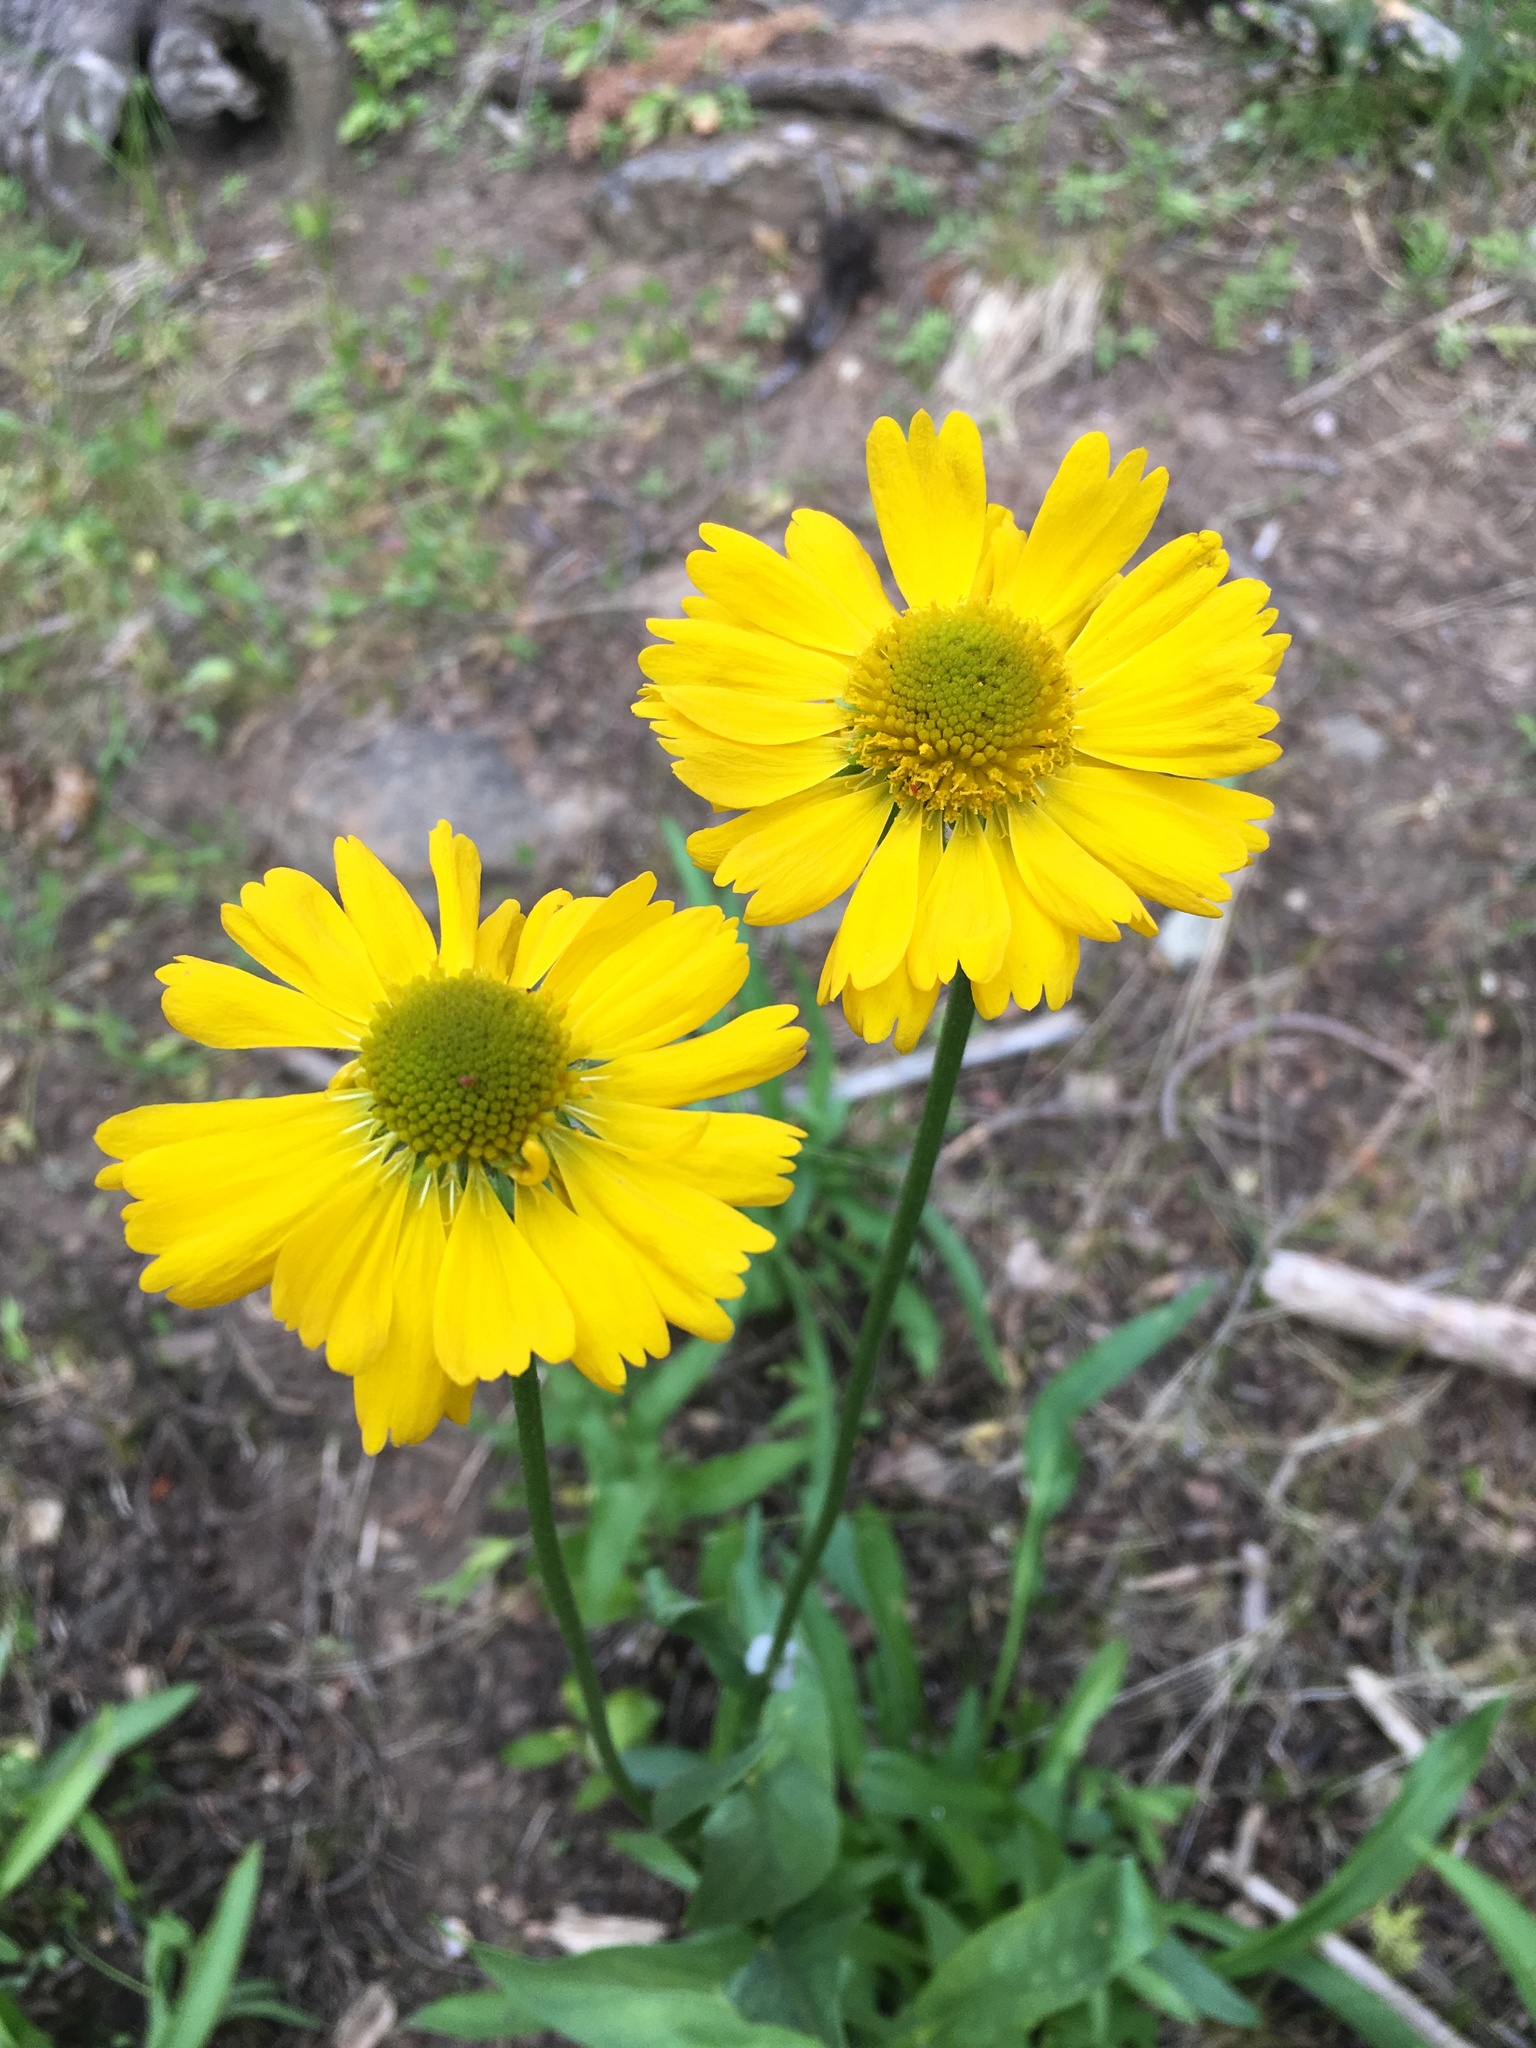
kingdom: Plantae
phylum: Tracheophyta
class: Magnoliopsida
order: Asterales
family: Asteraceae
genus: Helenium
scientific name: Helenium bigelovii
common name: Bigelow's sneezeweed
